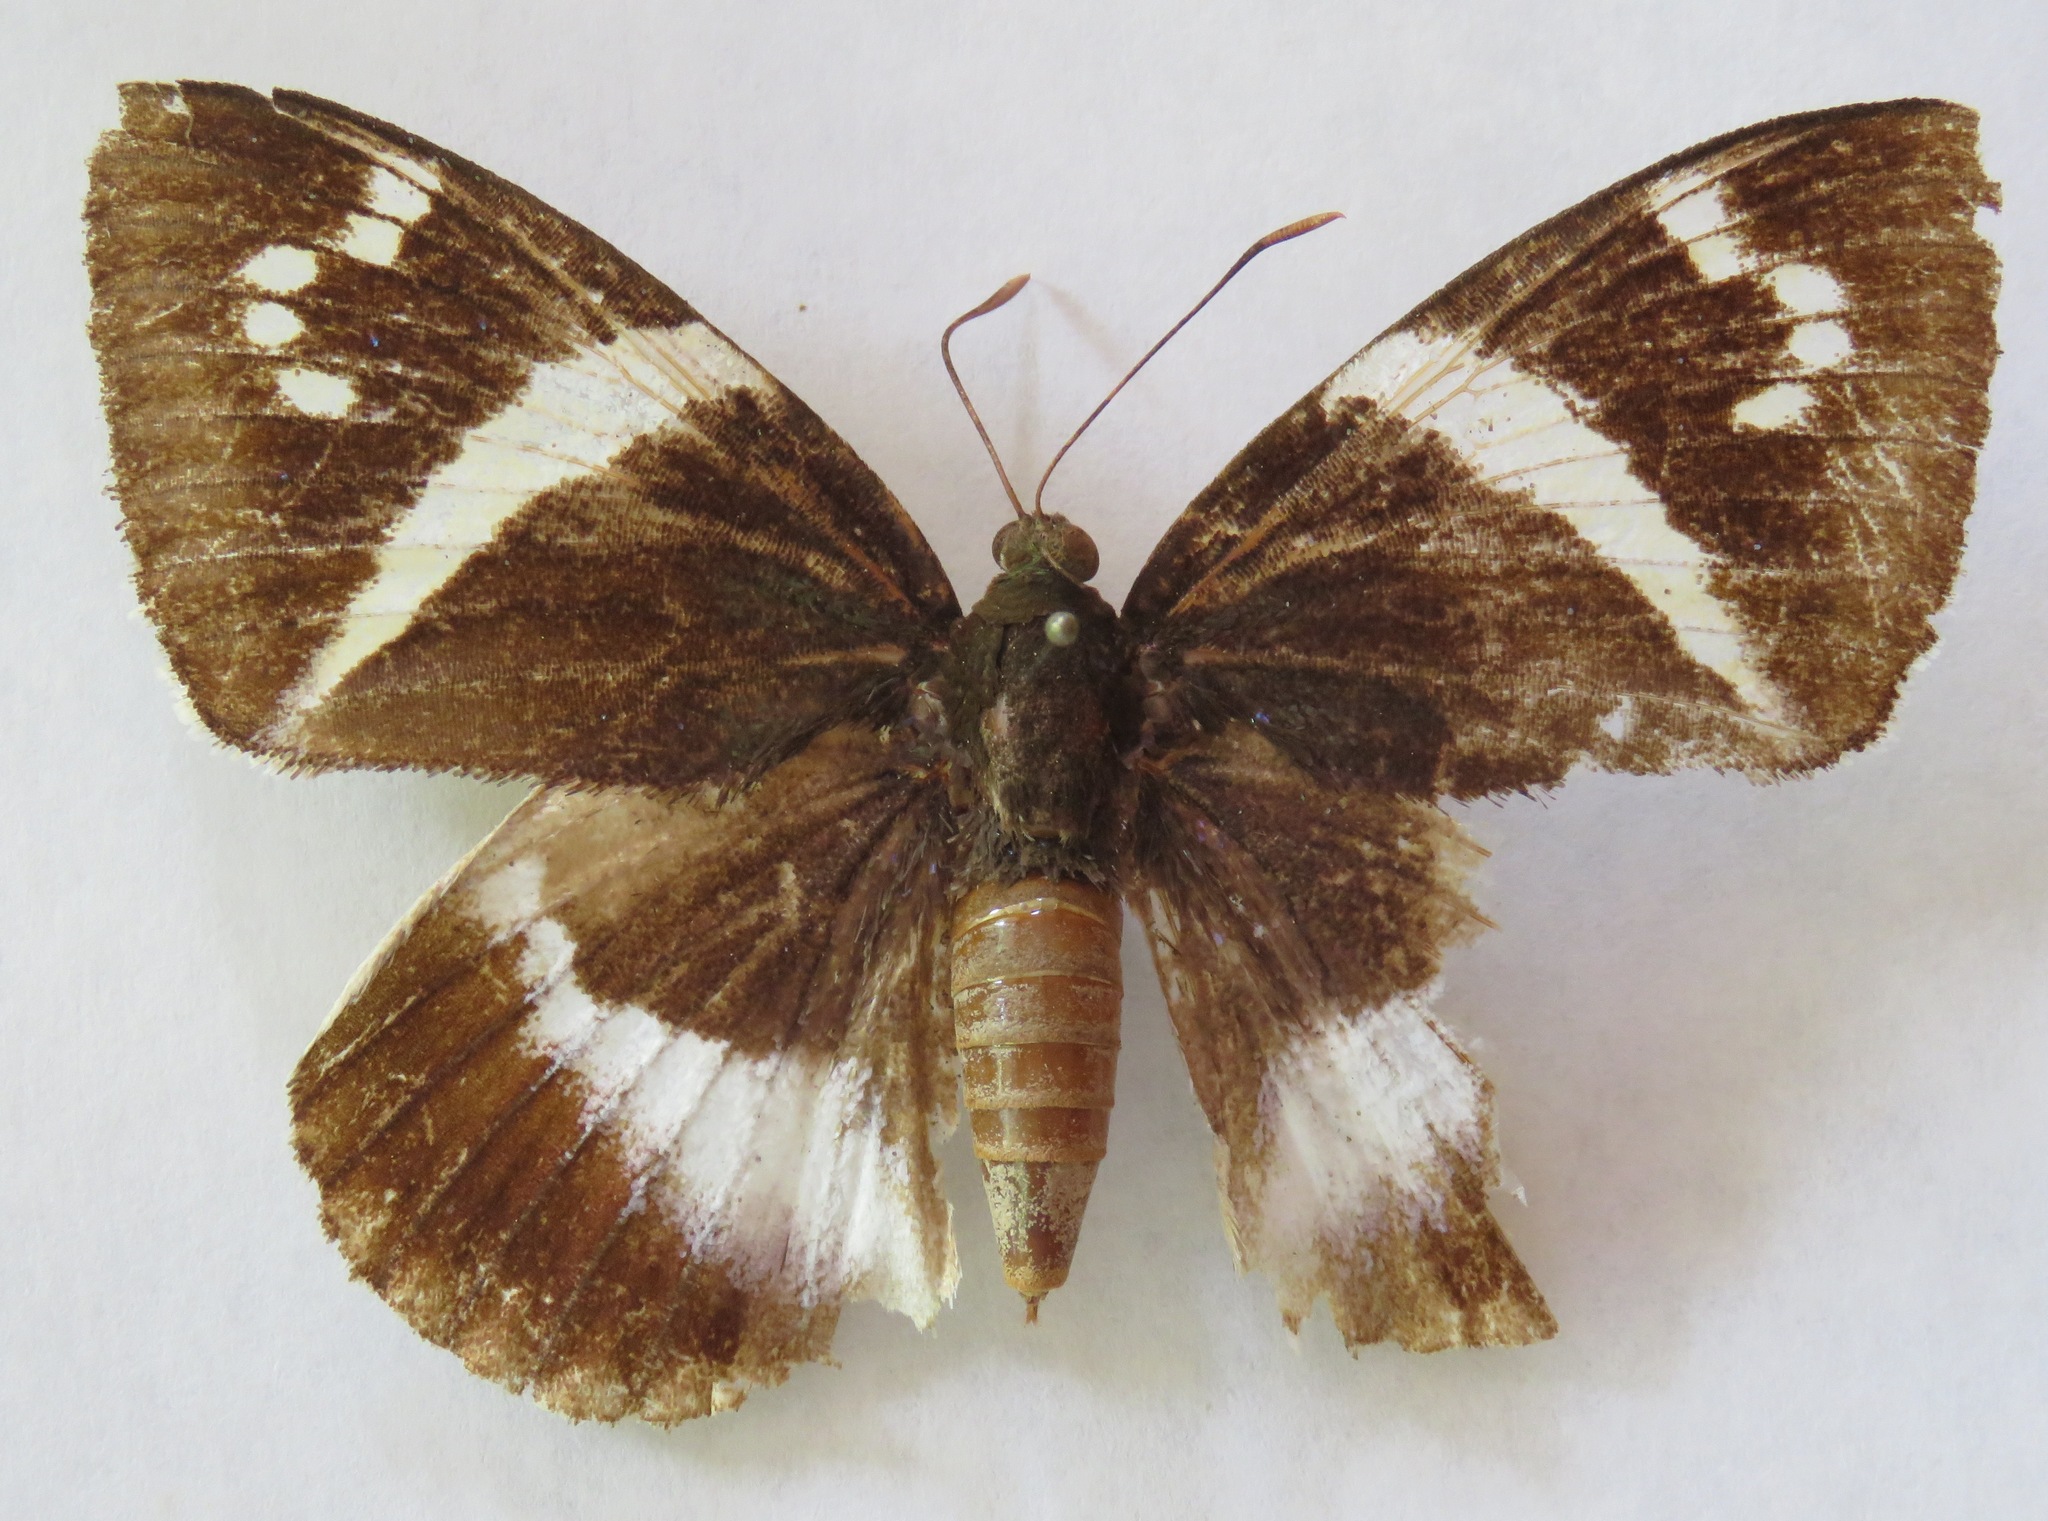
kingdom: Animalia
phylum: Arthropoda
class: Insecta
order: Lepidoptera
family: Castniidae
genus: Castniomera
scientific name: Castniomera atymnius
